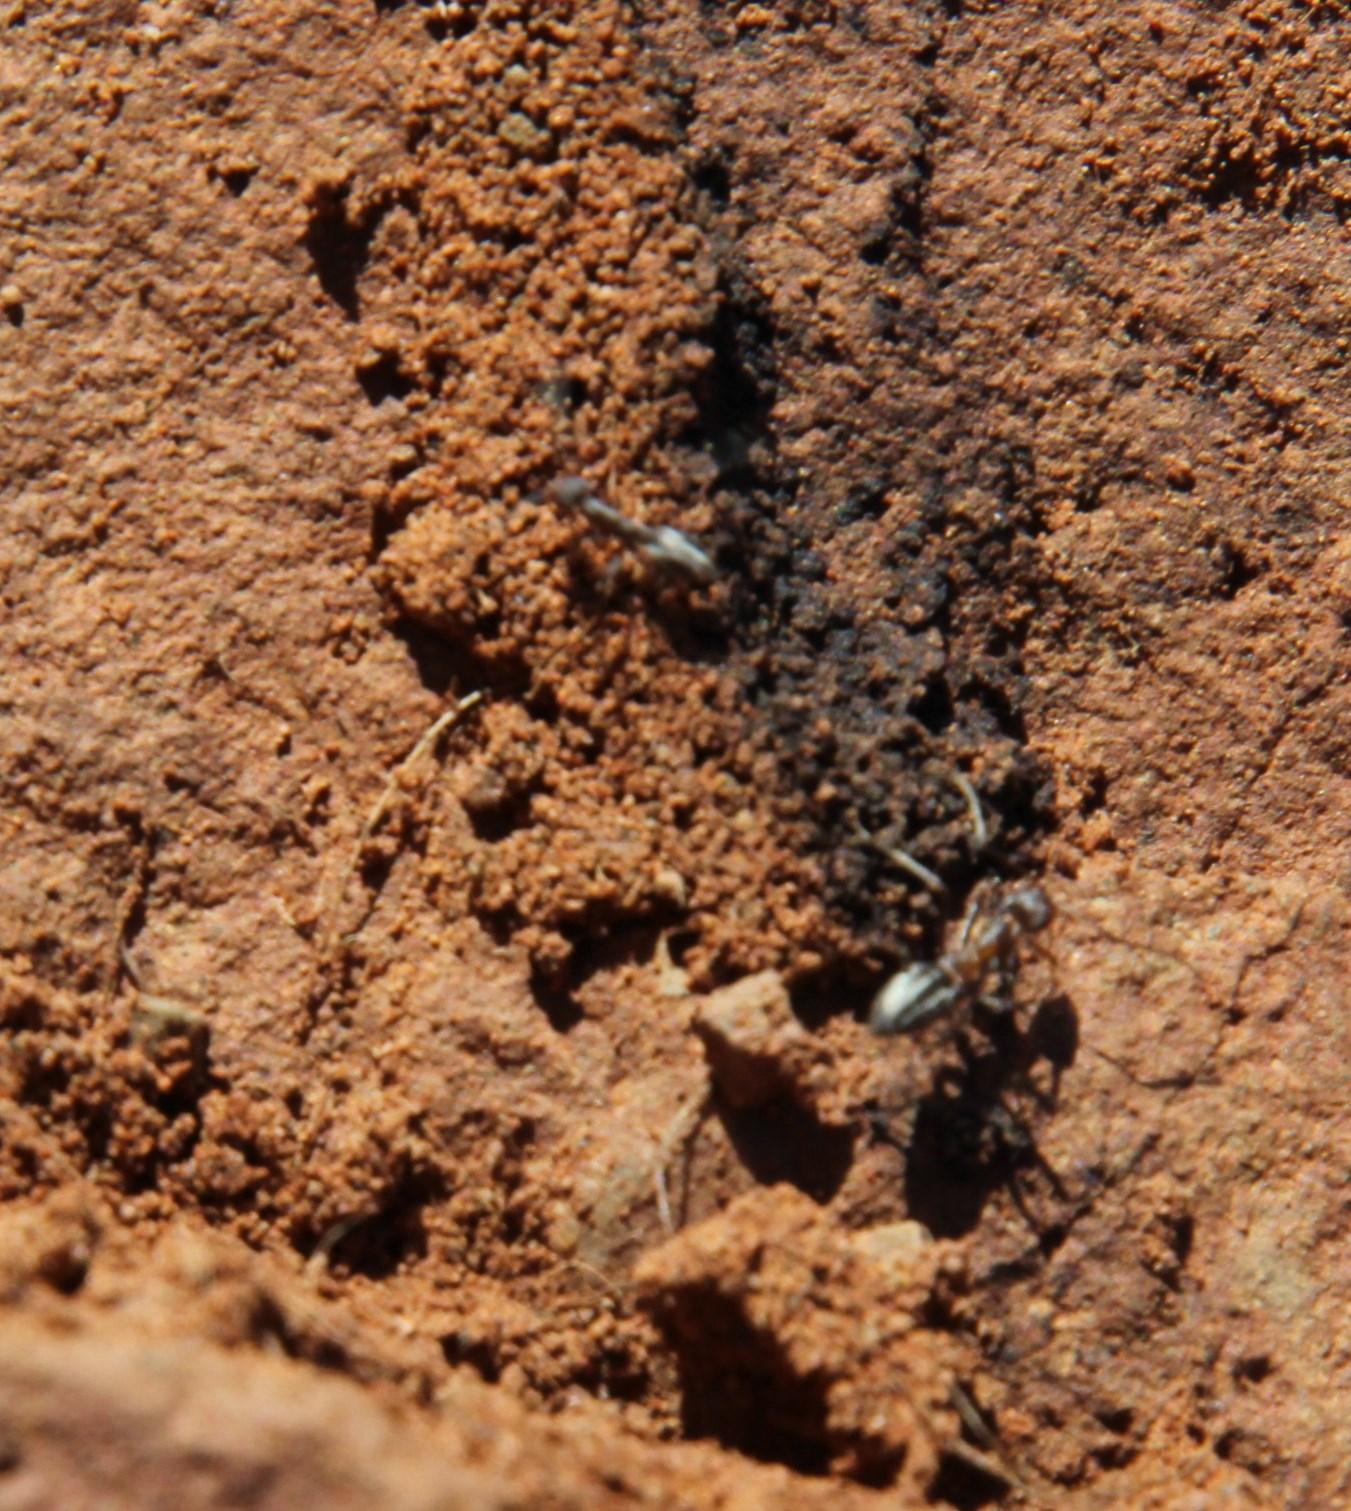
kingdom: Animalia
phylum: Arthropoda
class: Insecta
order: Hymenoptera
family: Formicidae
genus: Anoplolepis
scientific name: Anoplolepis custodiens
